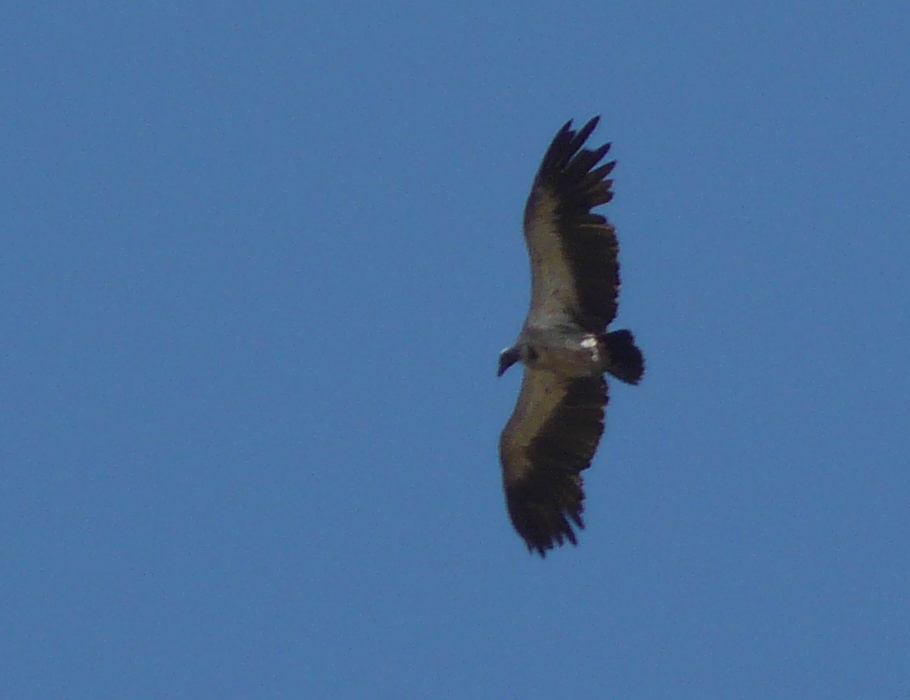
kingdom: Animalia
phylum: Chordata
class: Aves
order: Accipitriformes
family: Accipitridae
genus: Gyps
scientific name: Gyps africanus
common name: White-backed vulture
